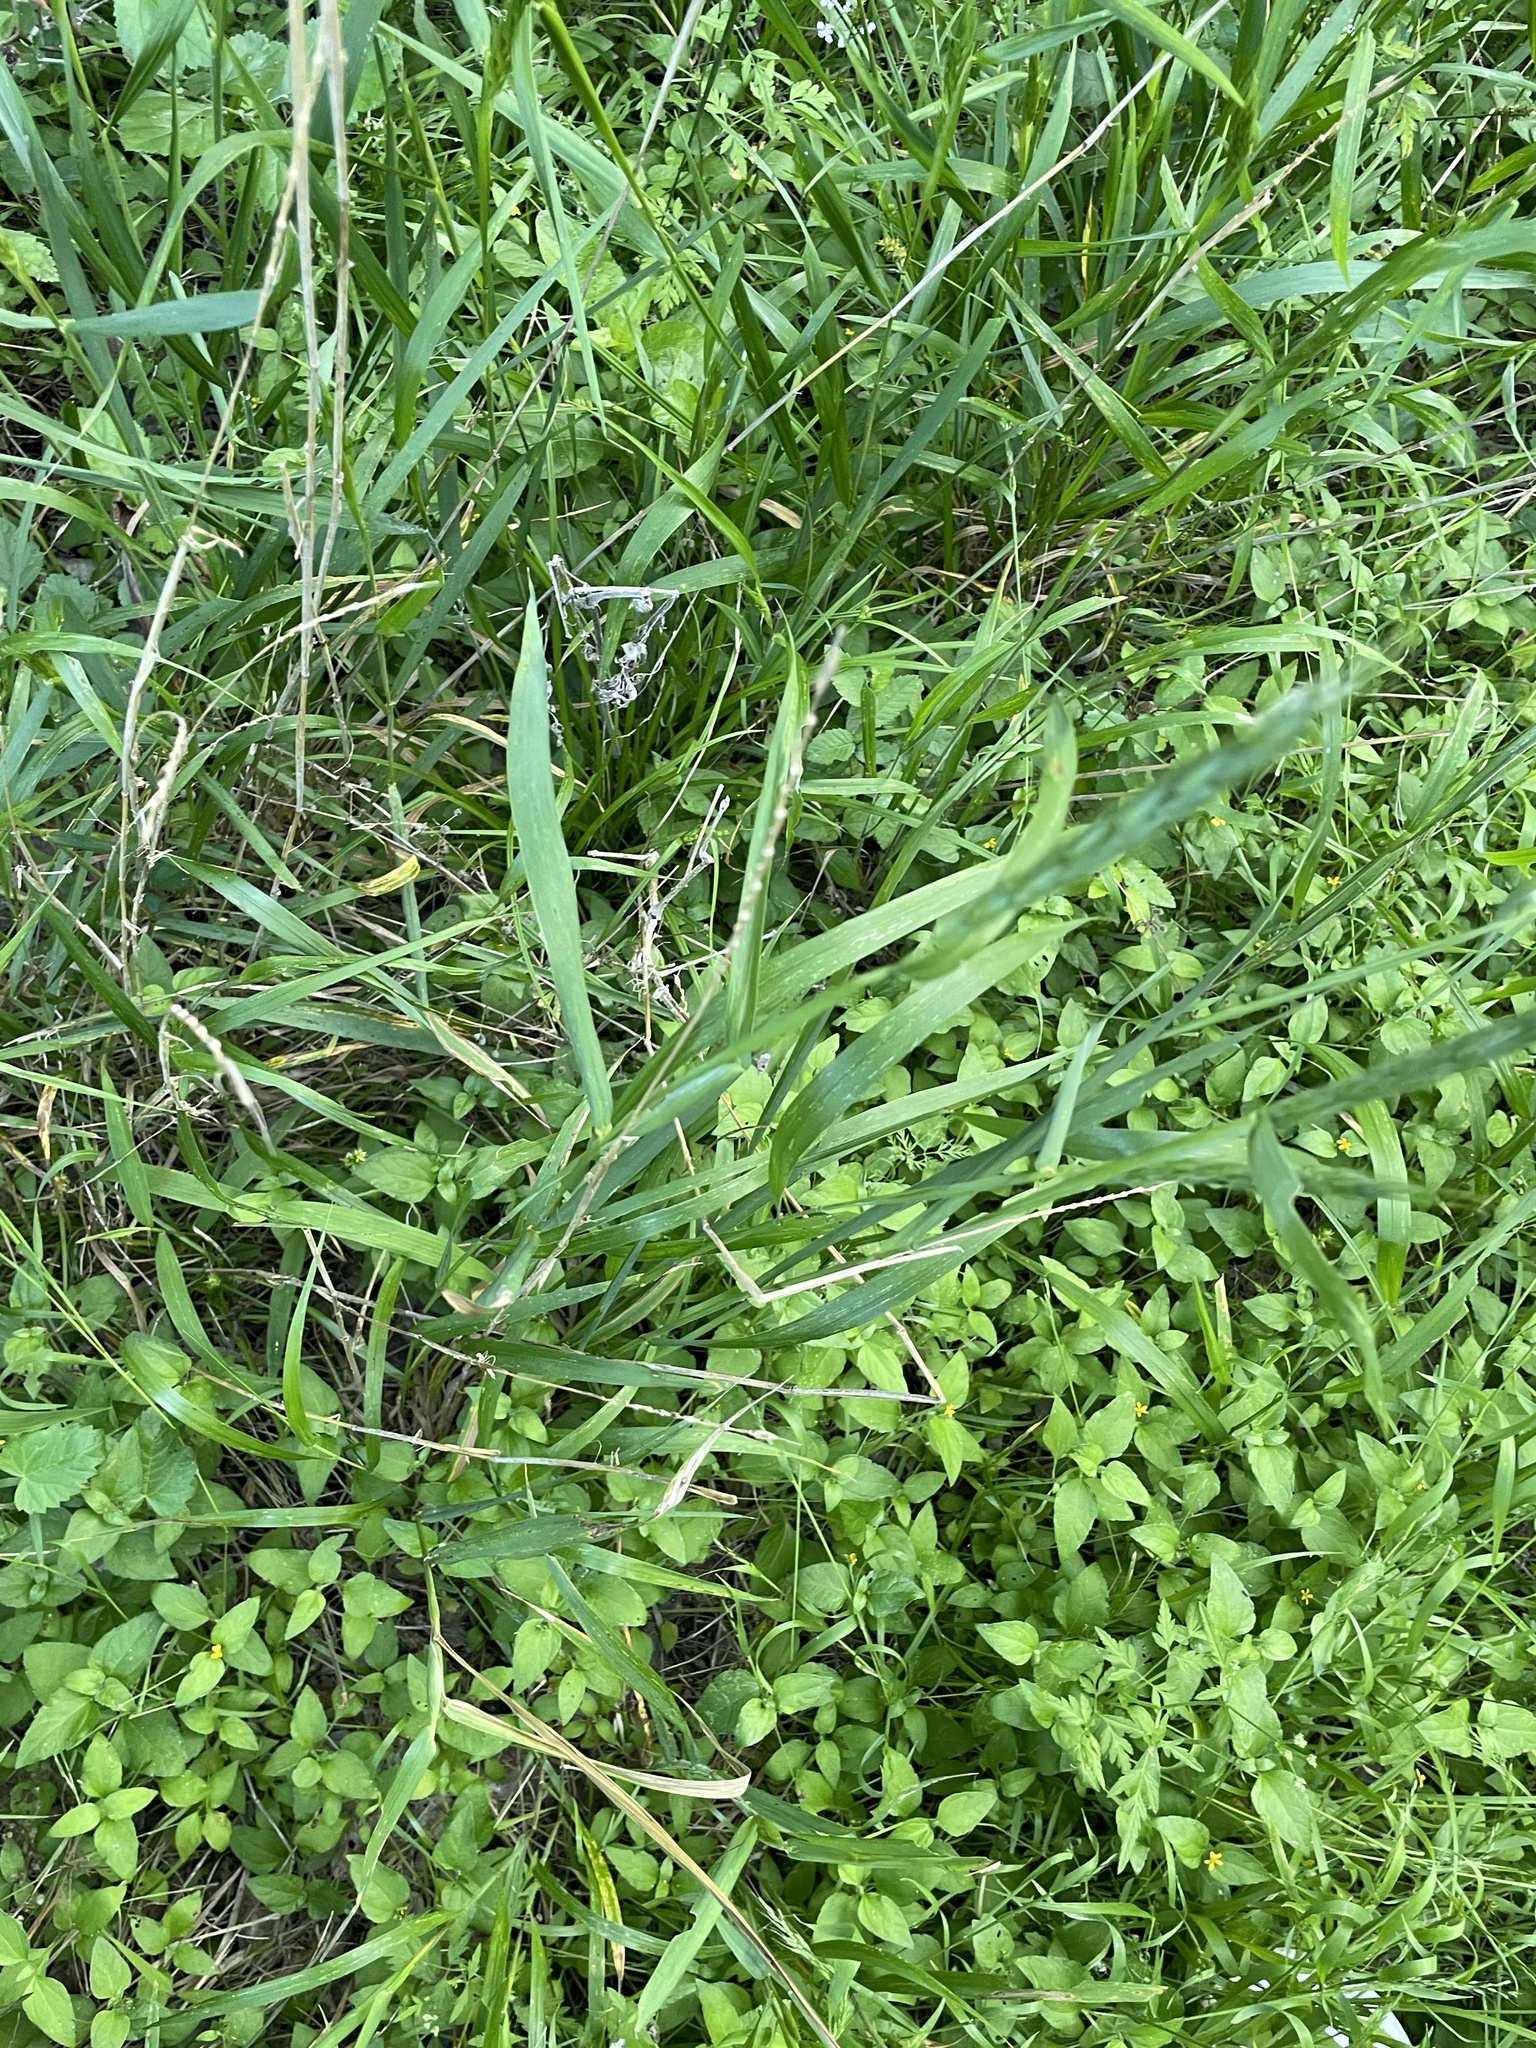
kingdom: Plantae
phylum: Tracheophyta
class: Liliopsida
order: Poales
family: Poaceae
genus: Elymus
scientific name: Elymus virginicus
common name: Common eastern wildrye
